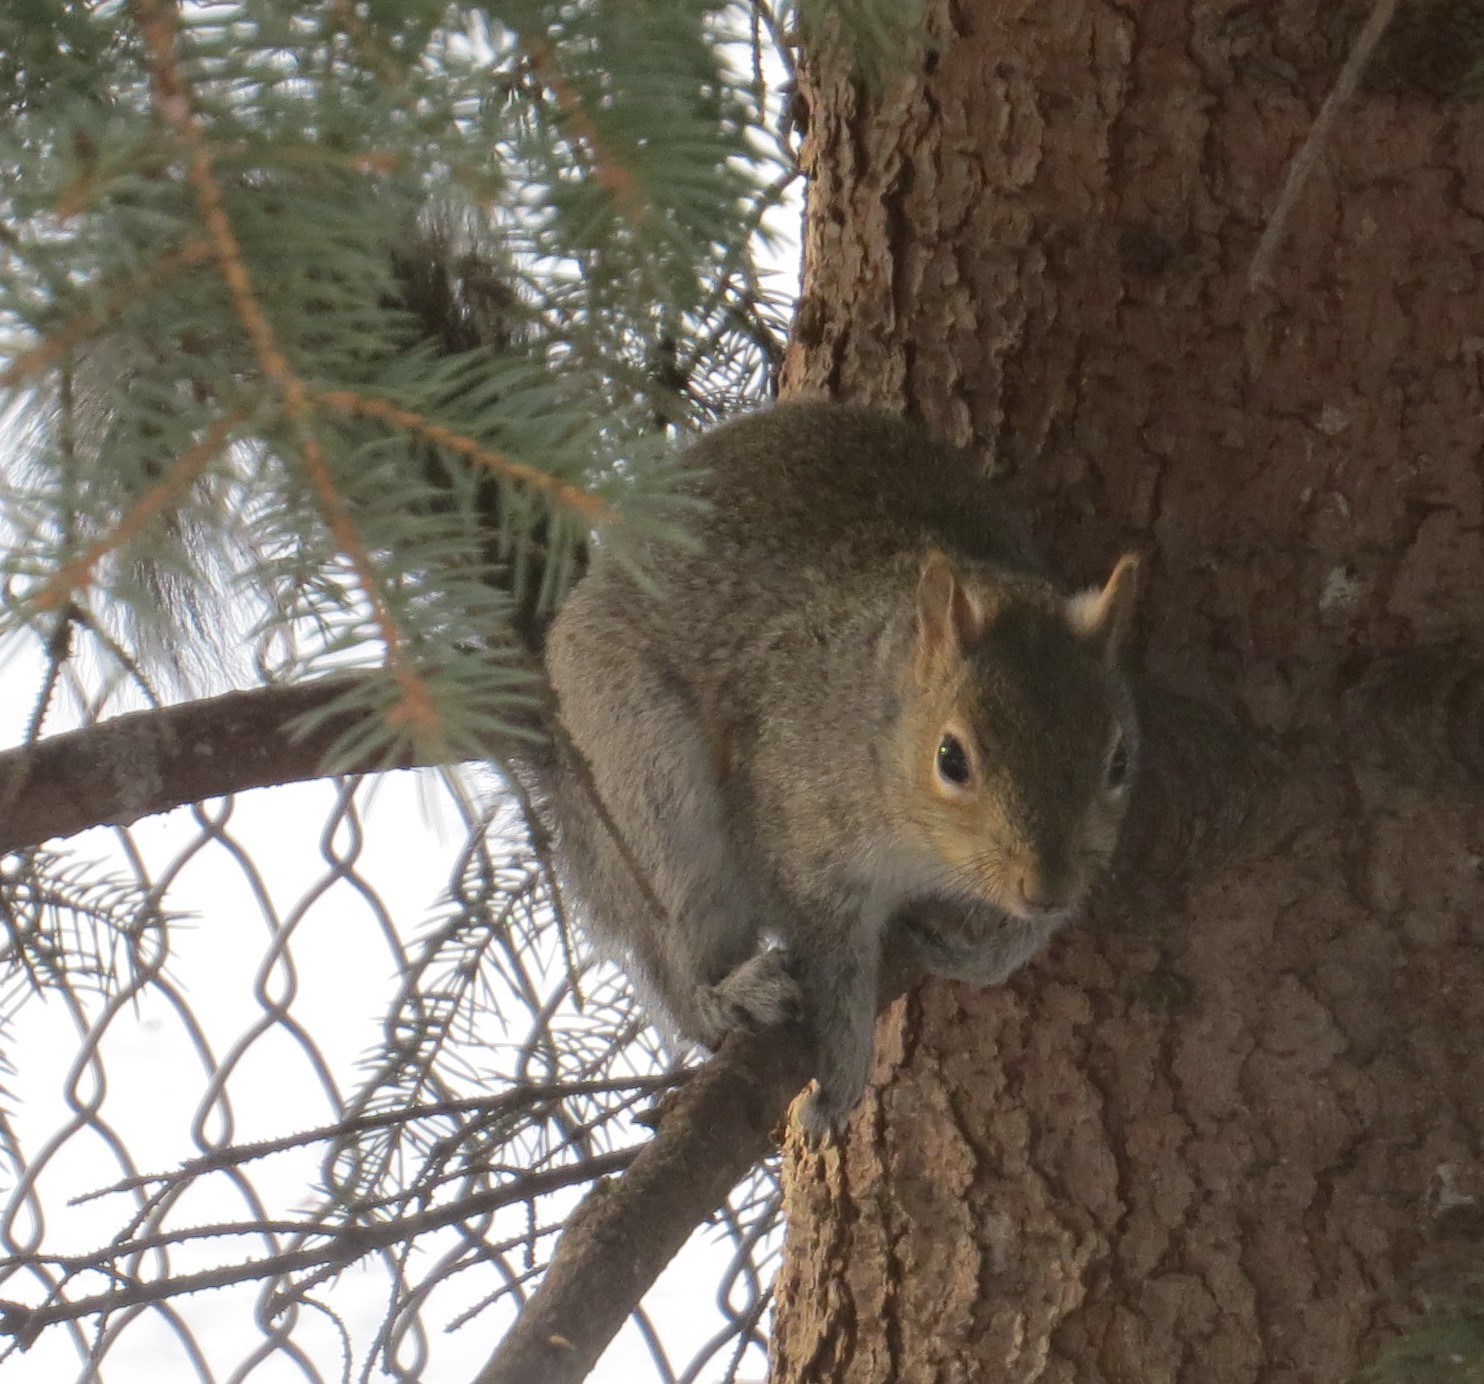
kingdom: Animalia
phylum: Chordata
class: Mammalia
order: Rodentia
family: Sciuridae
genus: Sciurus
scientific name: Sciurus carolinensis
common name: Eastern gray squirrel
